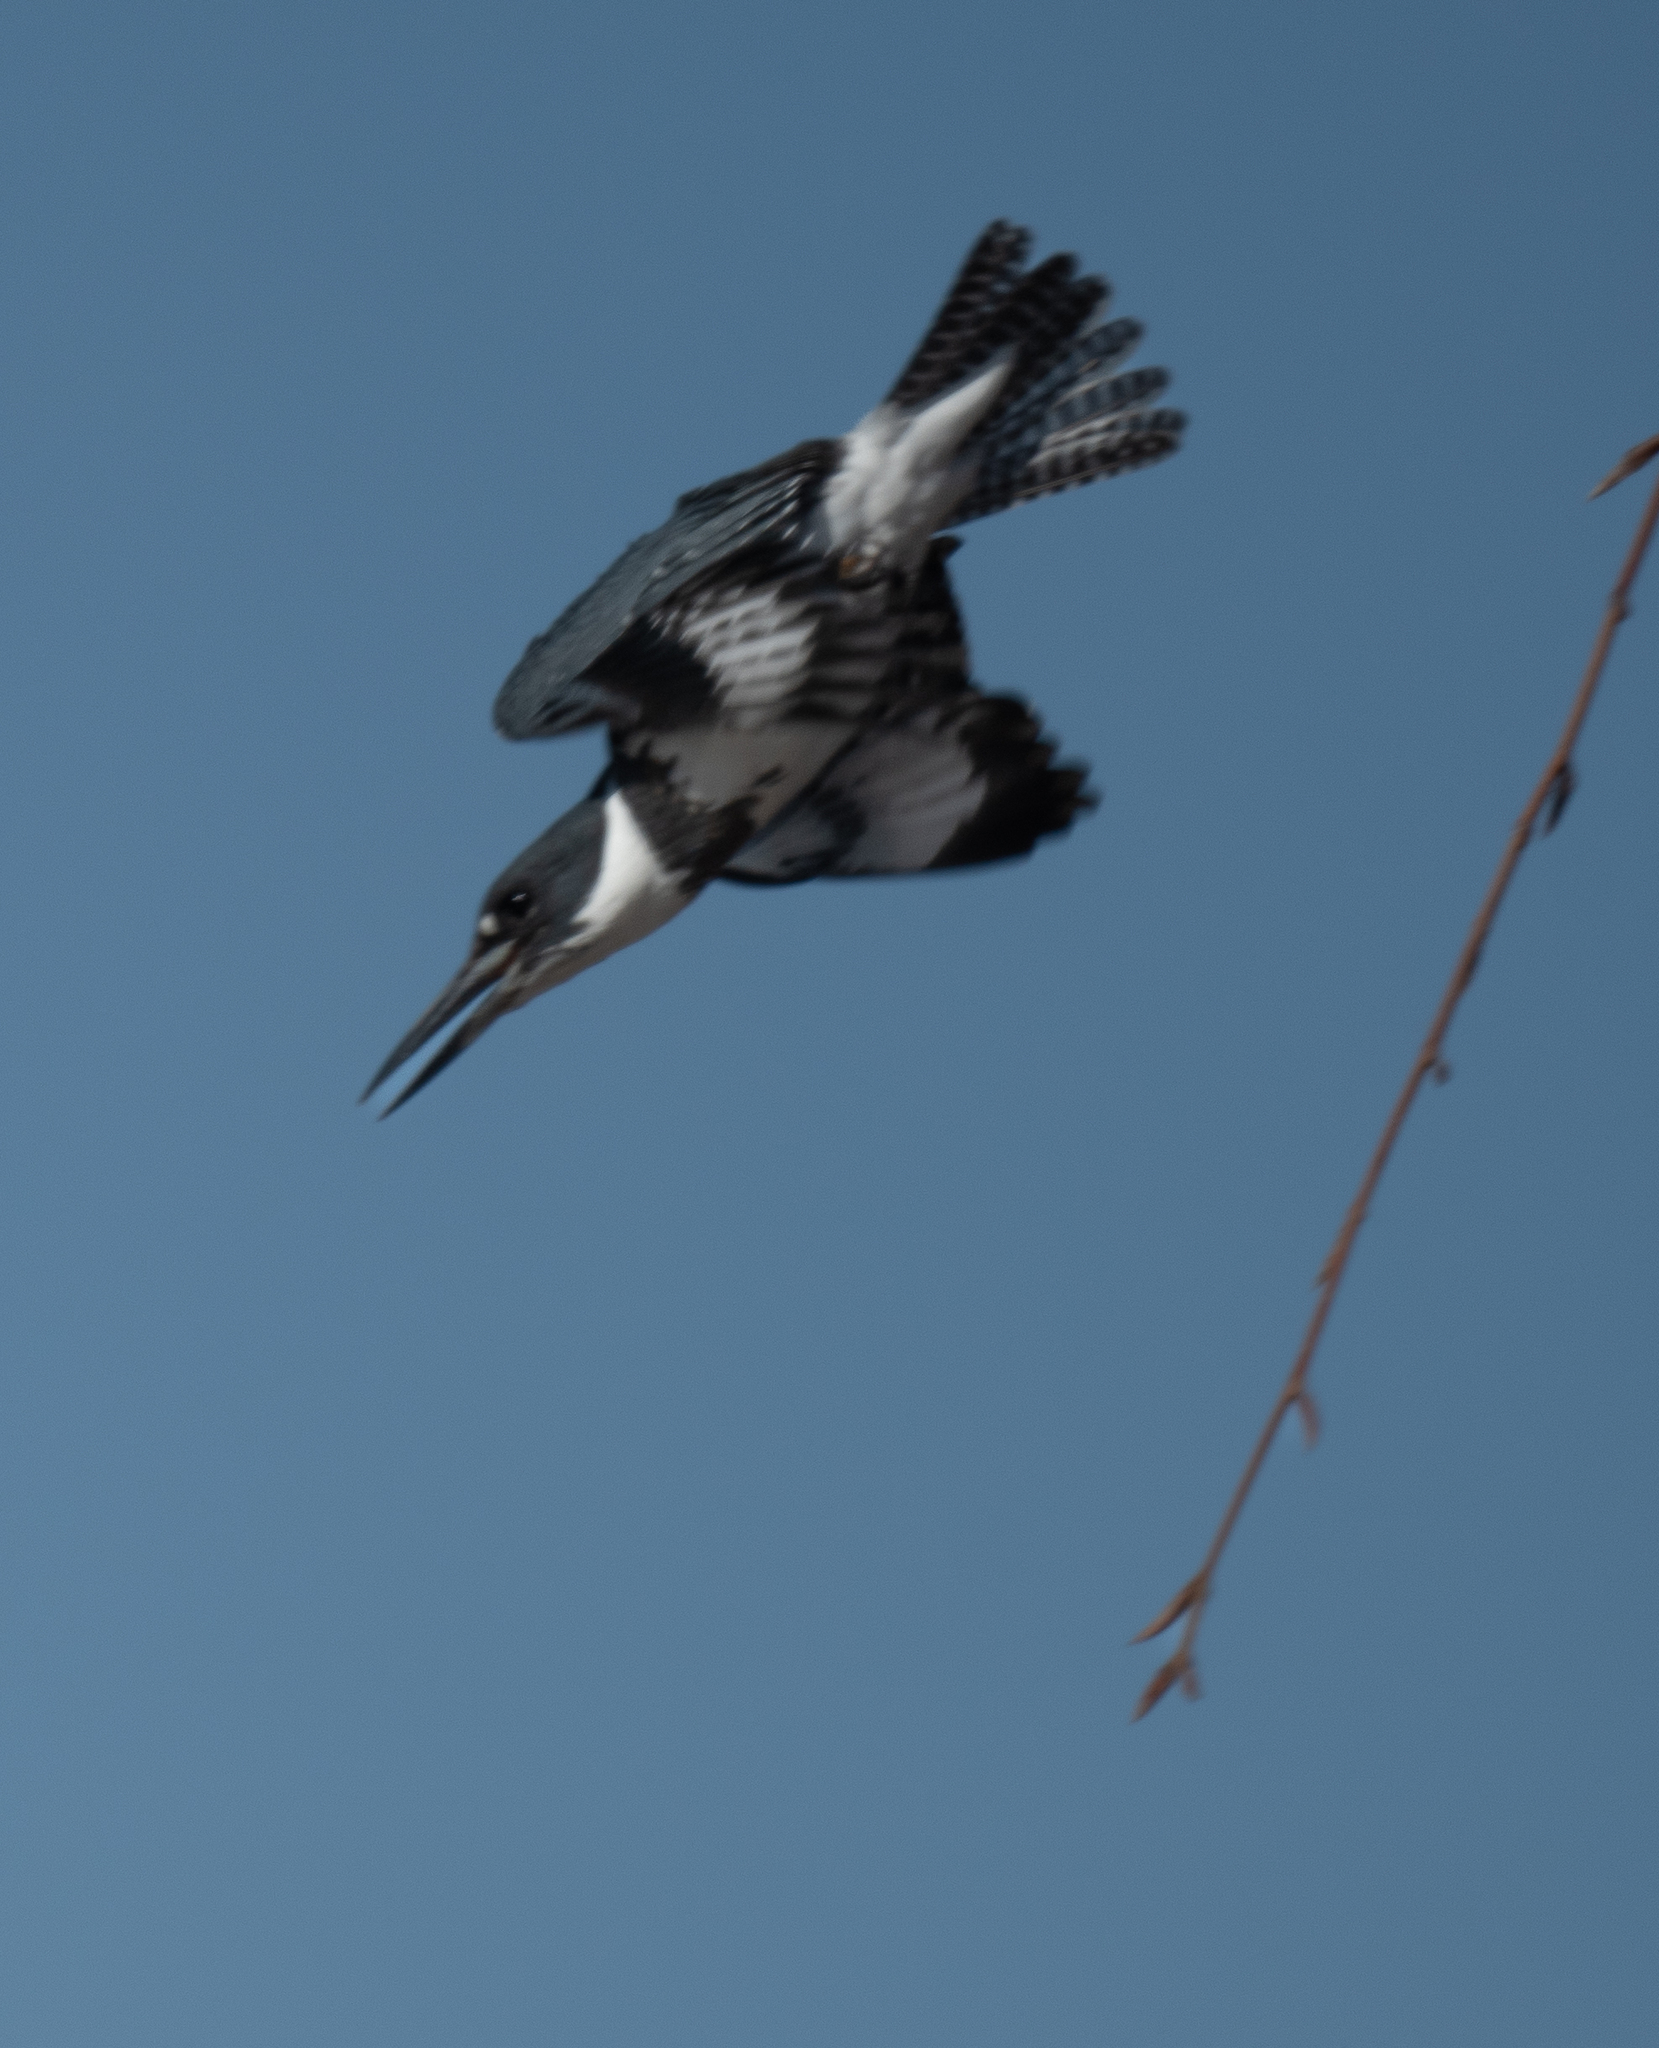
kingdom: Animalia
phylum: Chordata
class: Aves
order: Coraciiformes
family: Alcedinidae
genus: Megaceryle
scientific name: Megaceryle alcyon
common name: Belted kingfisher
